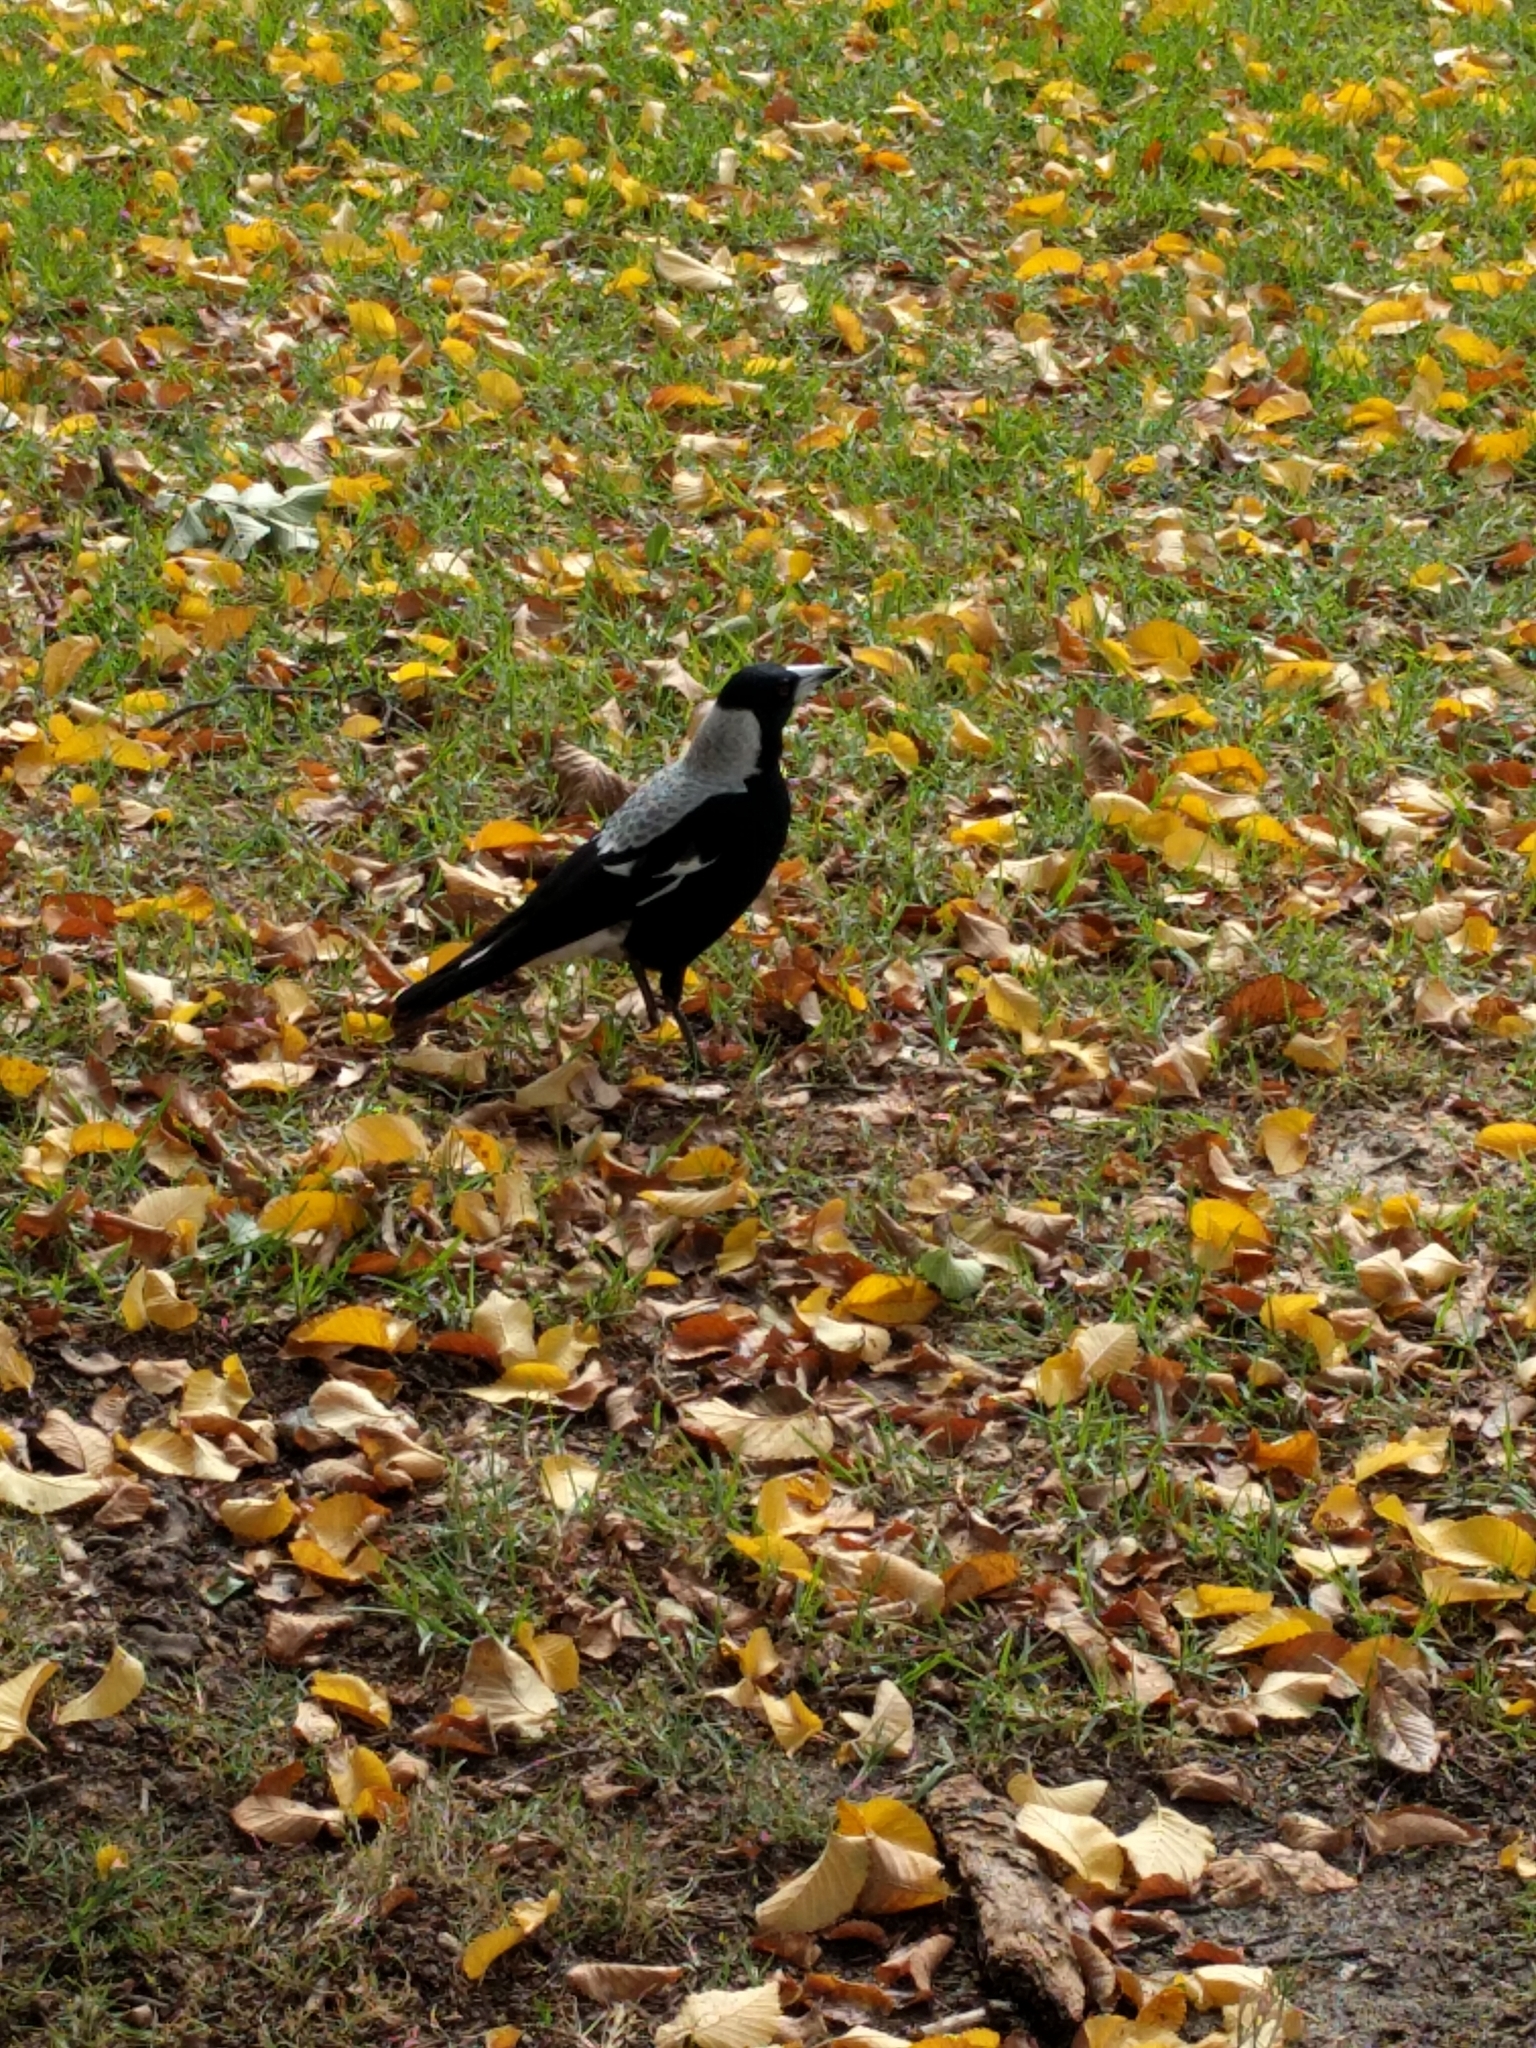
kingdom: Animalia
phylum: Chordata
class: Aves
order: Passeriformes
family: Cracticidae
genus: Gymnorhina
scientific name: Gymnorhina tibicen
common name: Australian magpie
